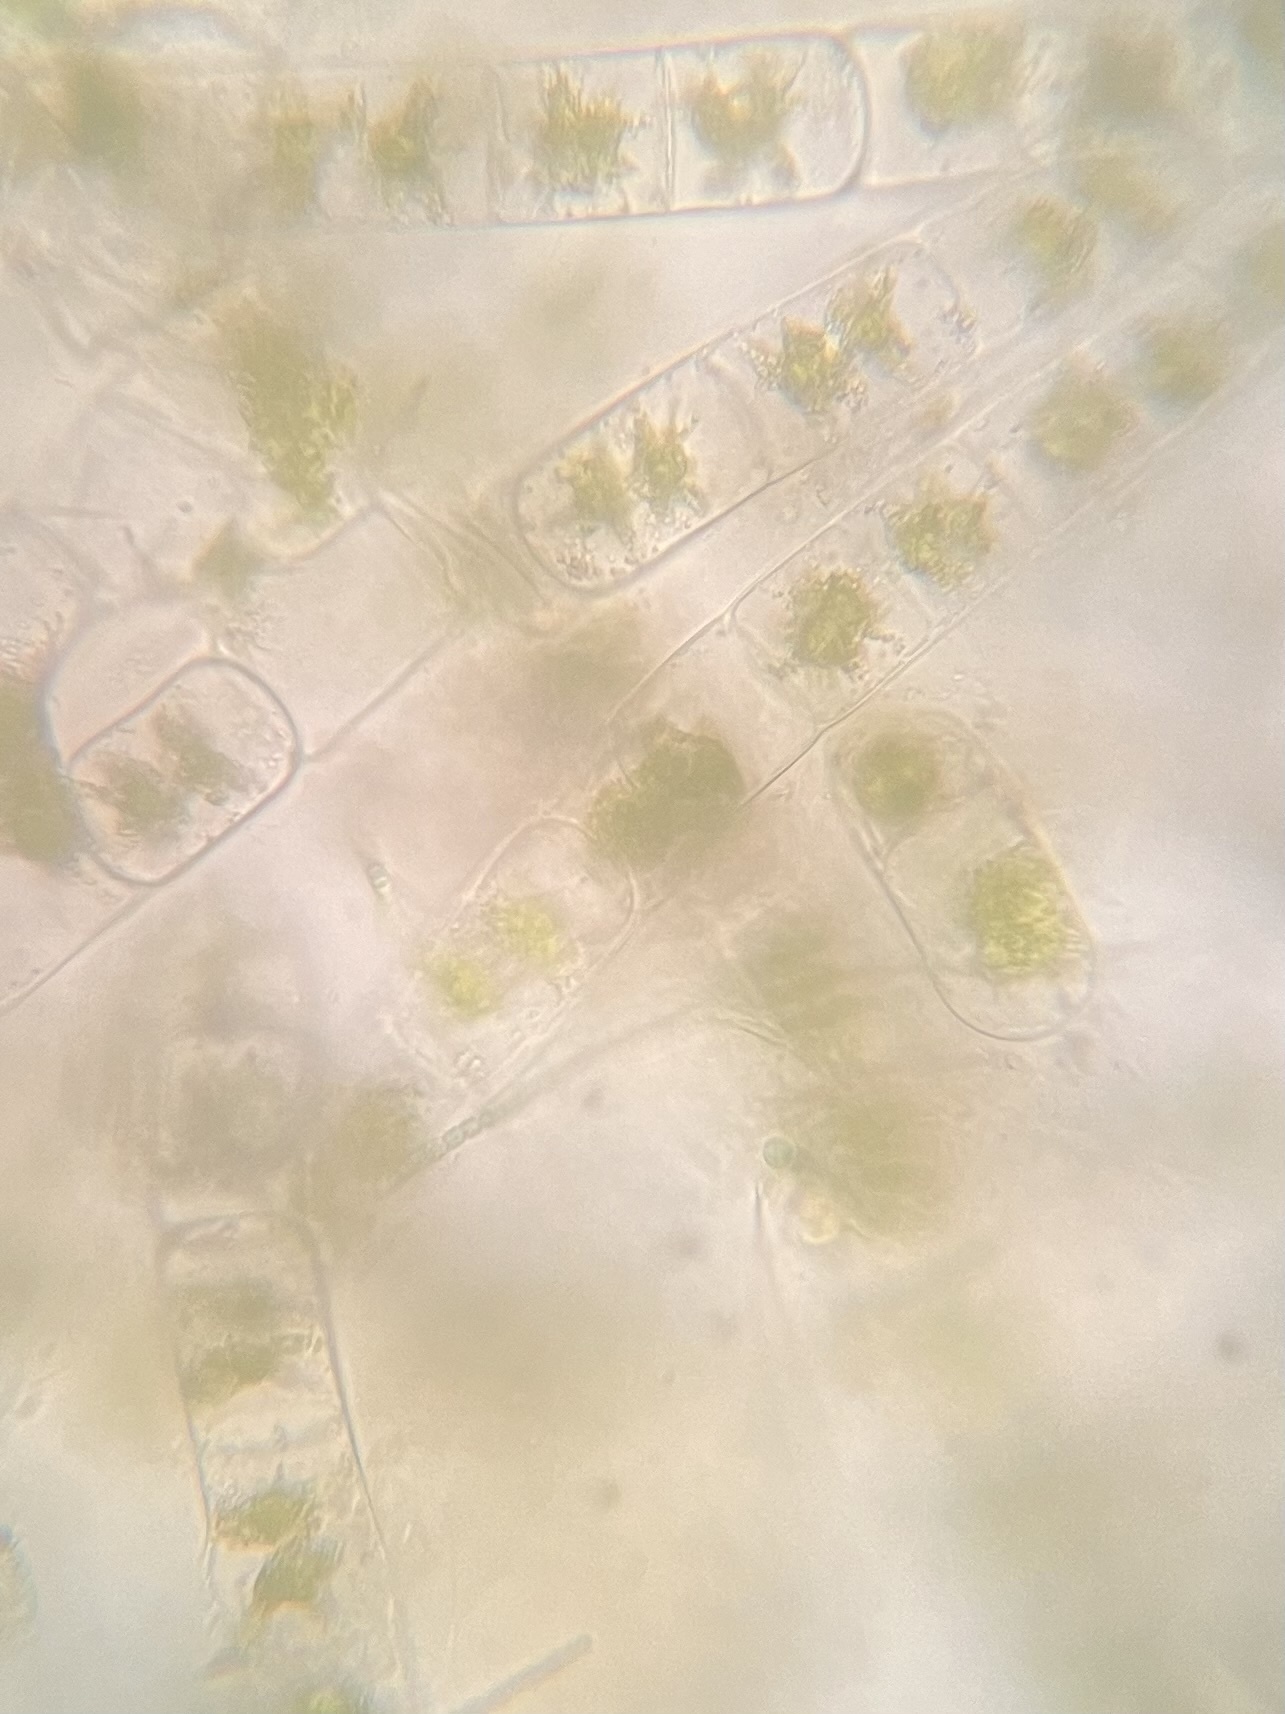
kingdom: Plantae
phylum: Charophyta
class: Zygnematophyceae
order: Zygnematales
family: Zygnemataceae
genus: Zygnema
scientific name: Zygnema
